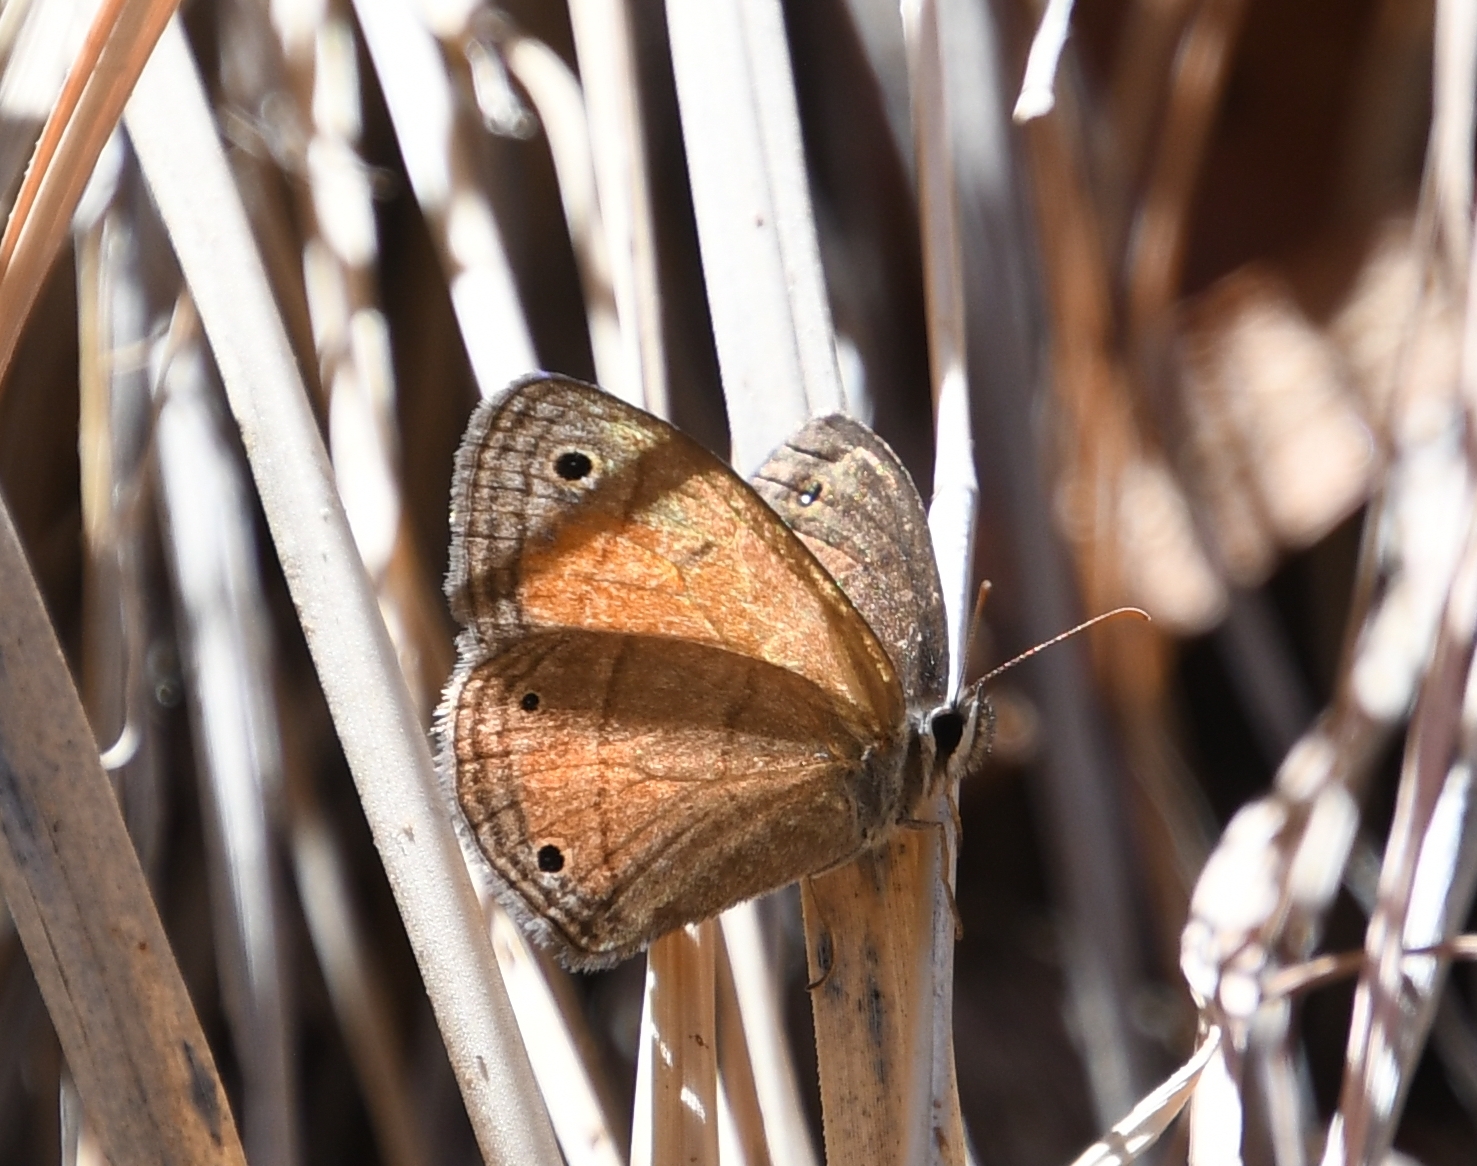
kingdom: Animalia
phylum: Arthropoda
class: Insecta
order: Lepidoptera
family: Nymphalidae
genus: Euptychia
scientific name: Euptychia
